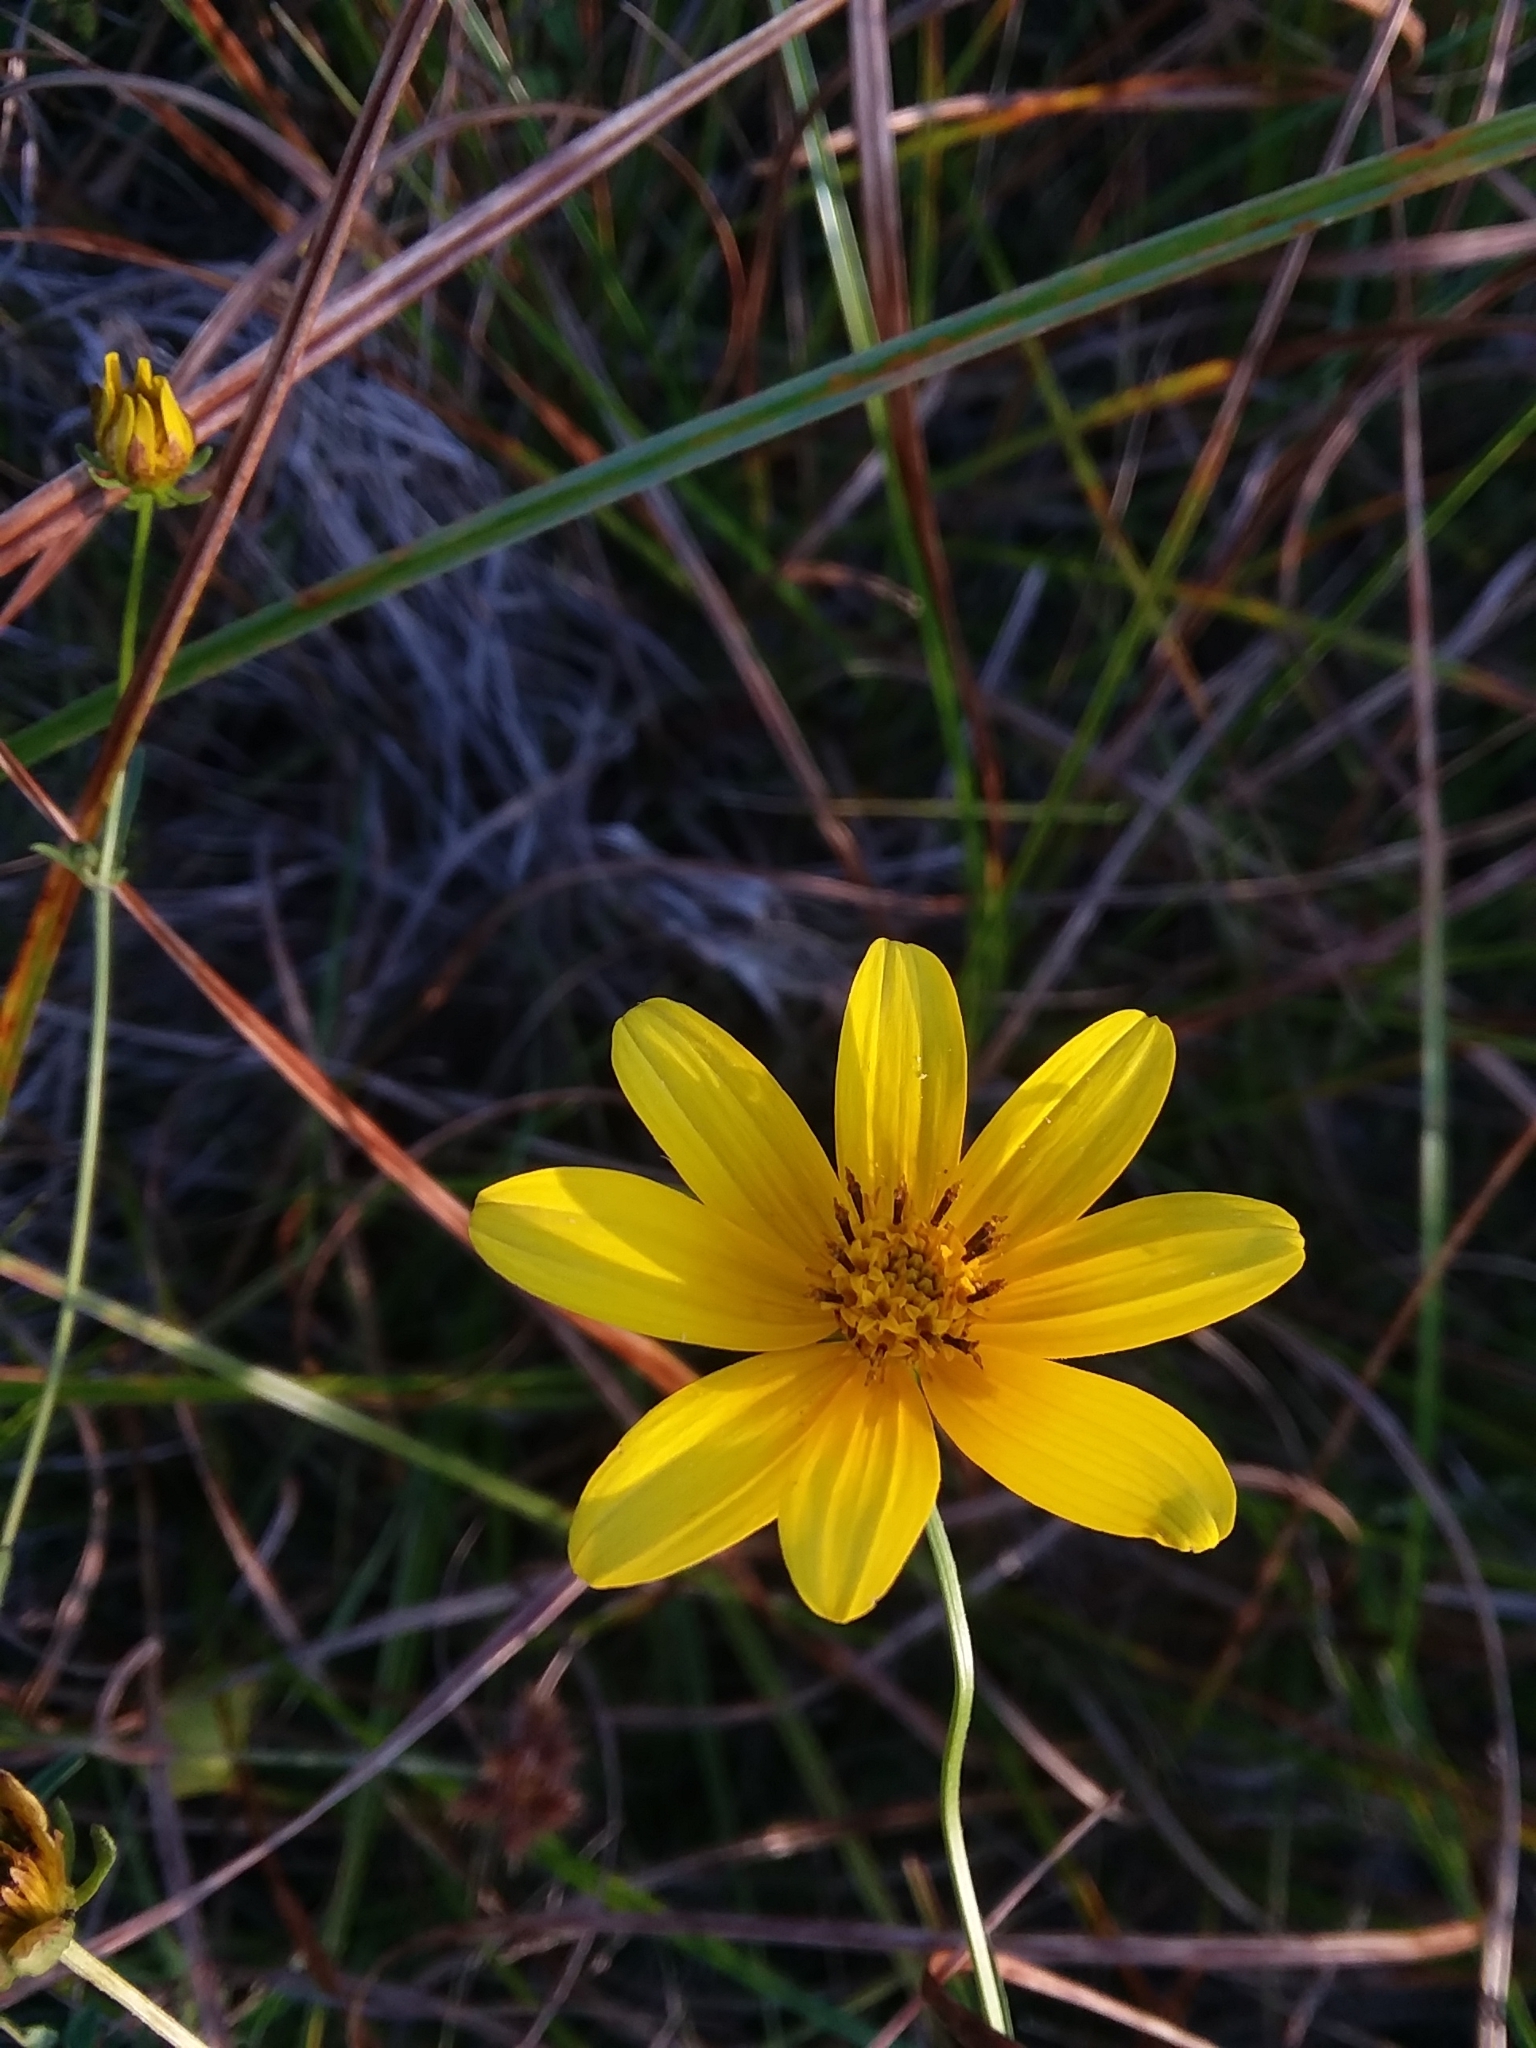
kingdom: Plantae
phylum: Tracheophyta
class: Magnoliopsida
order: Asterales
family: Asteraceae
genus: Bidens
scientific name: Bidens mitis
